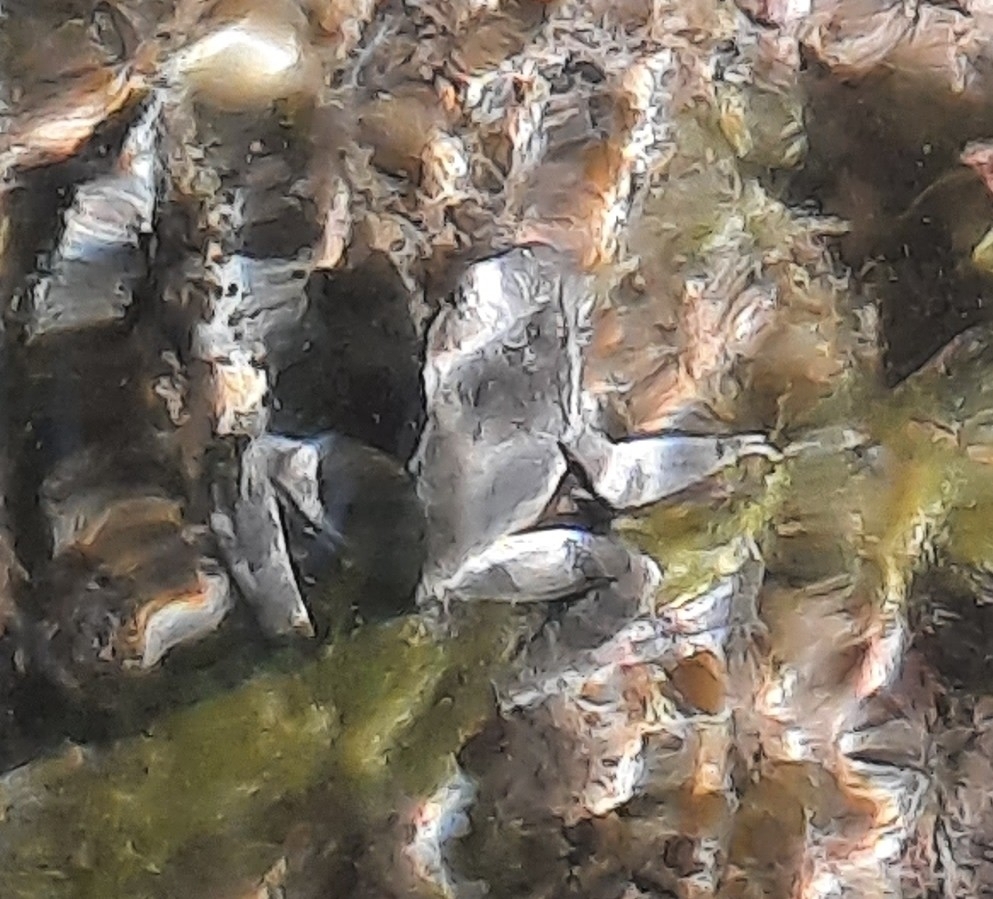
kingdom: Animalia
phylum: Chordata
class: Amphibia
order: Anura
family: Ranidae
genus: Rana
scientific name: Rana graeca
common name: Greek stream frog
